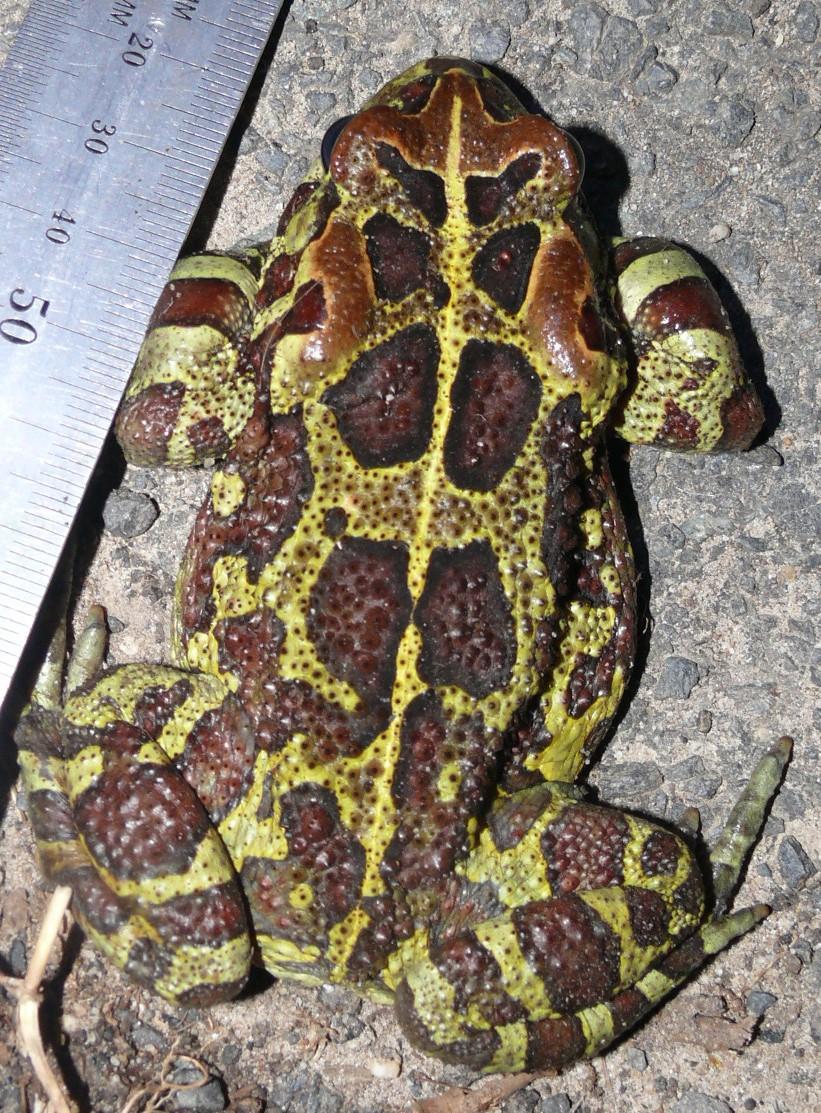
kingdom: Animalia
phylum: Chordata
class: Amphibia
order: Anura
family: Bufonidae
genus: Sclerophrys
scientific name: Sclerophrys pantherina
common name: Panther toad
